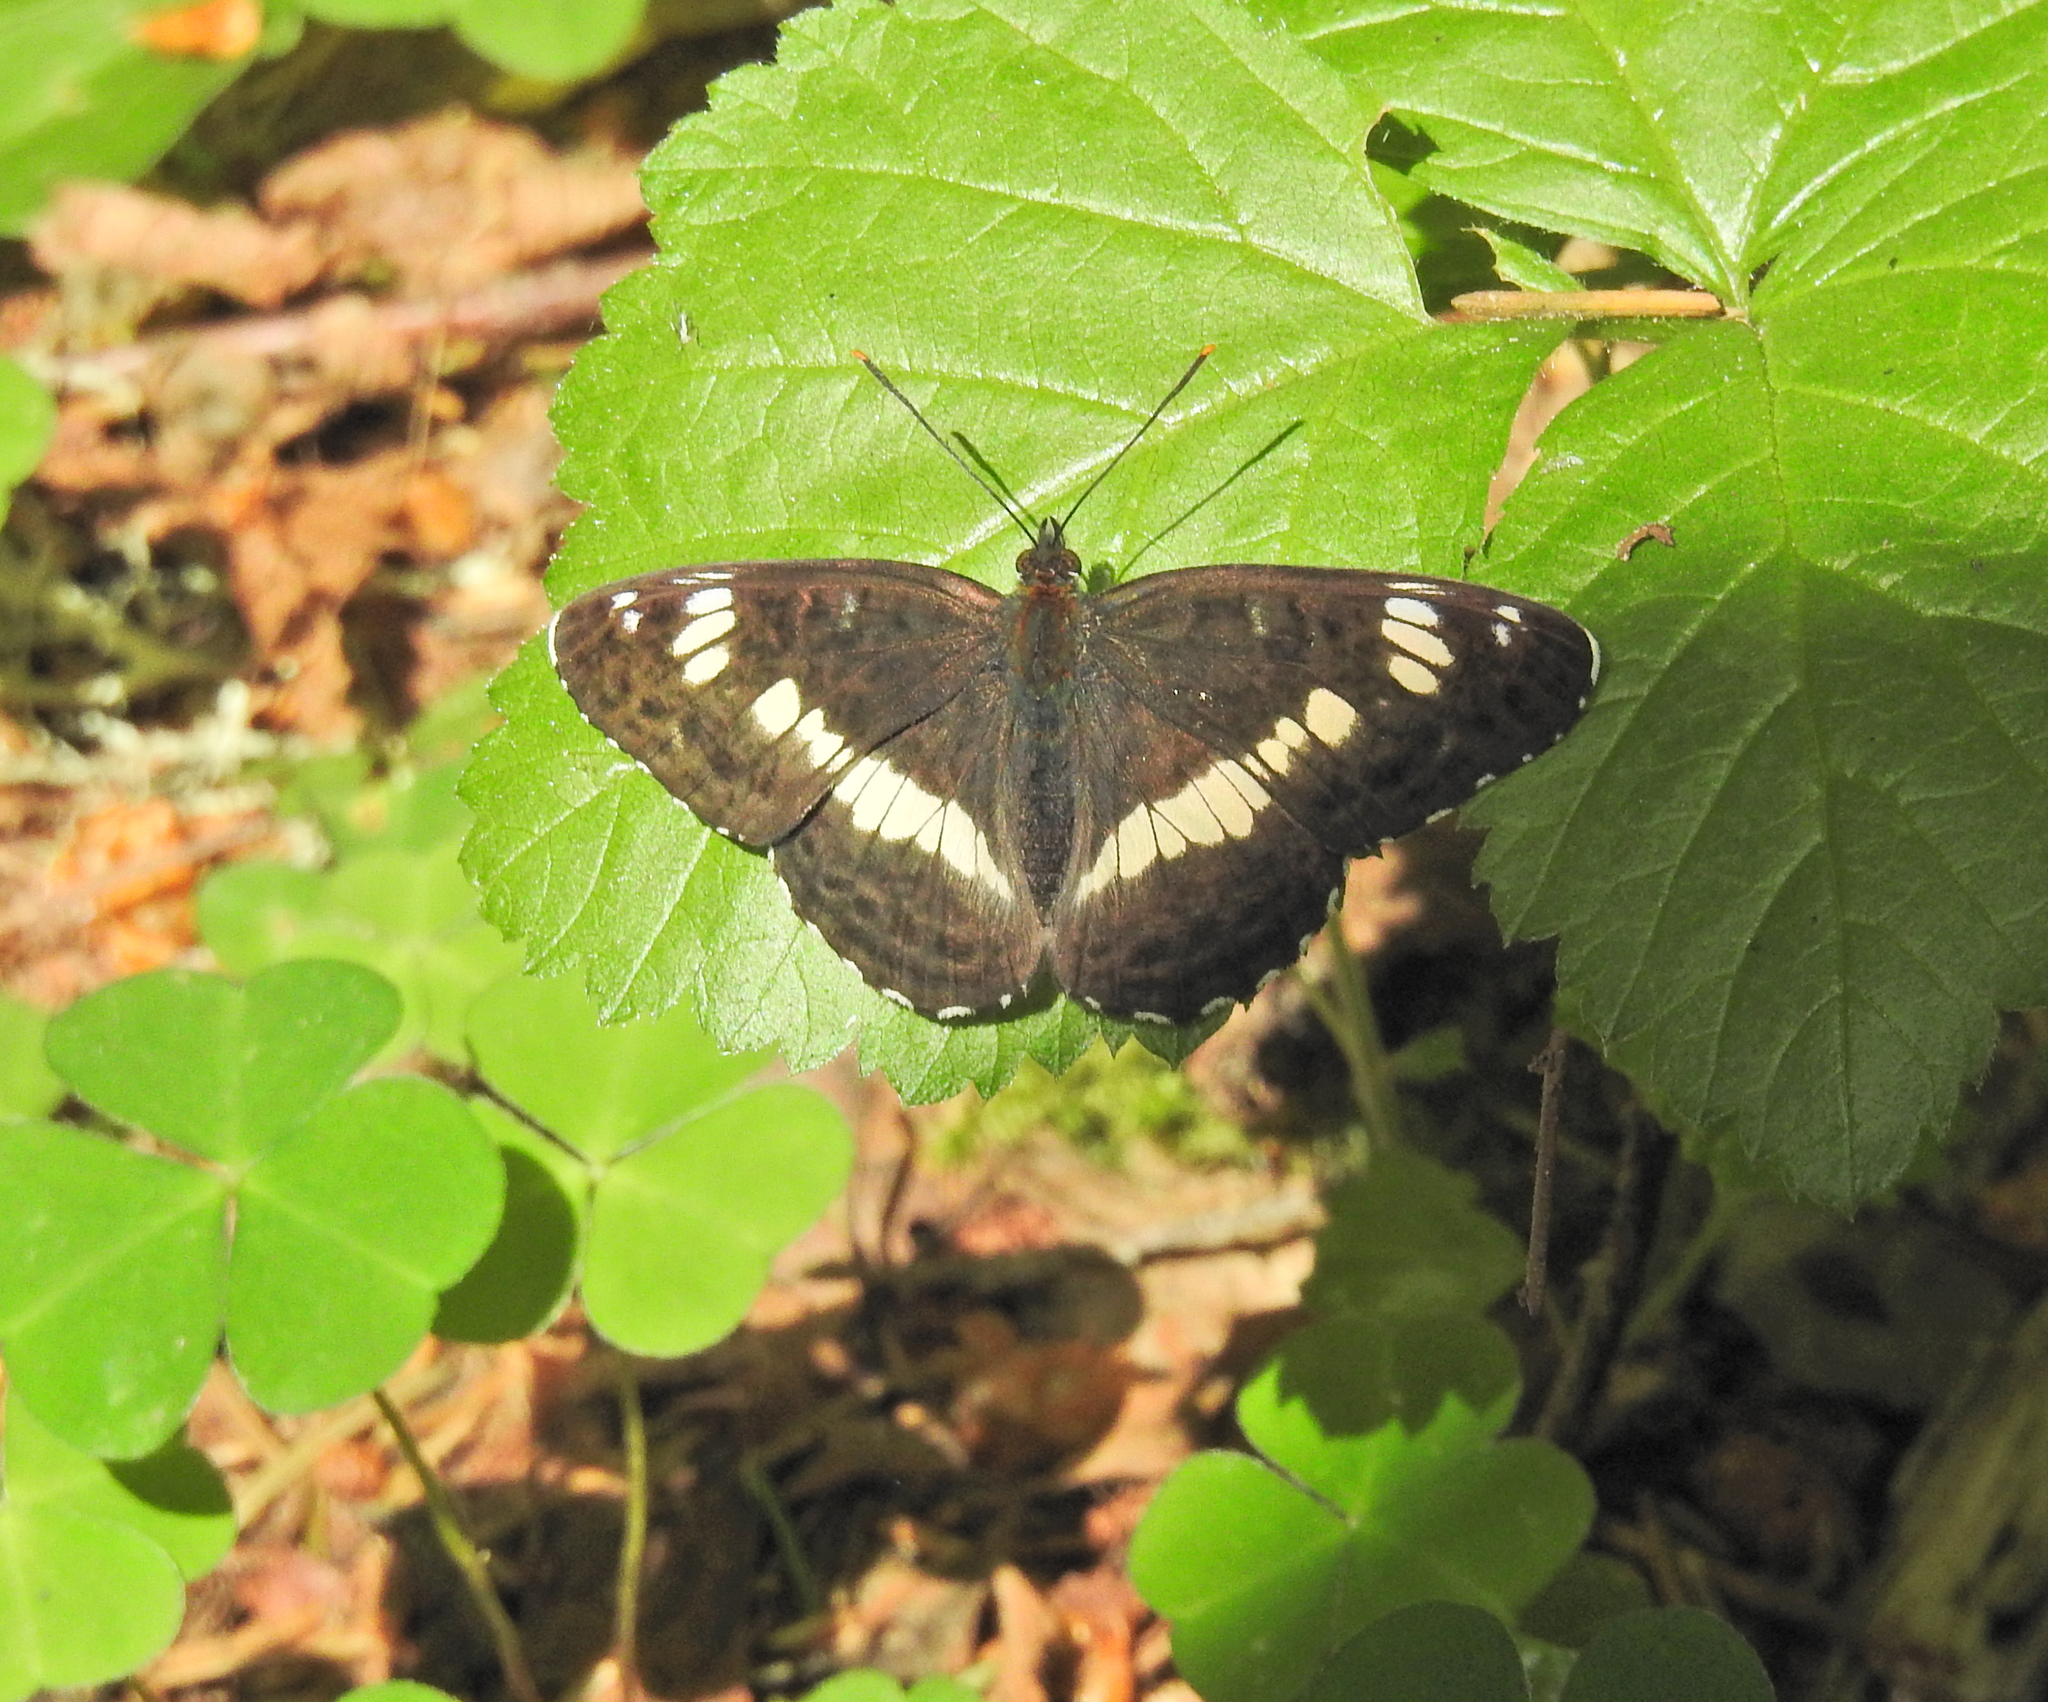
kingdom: Animalia
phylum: Arthropoda
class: Insecta
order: Lepidoptera
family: Nymphalidae
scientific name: Nymphalidae
